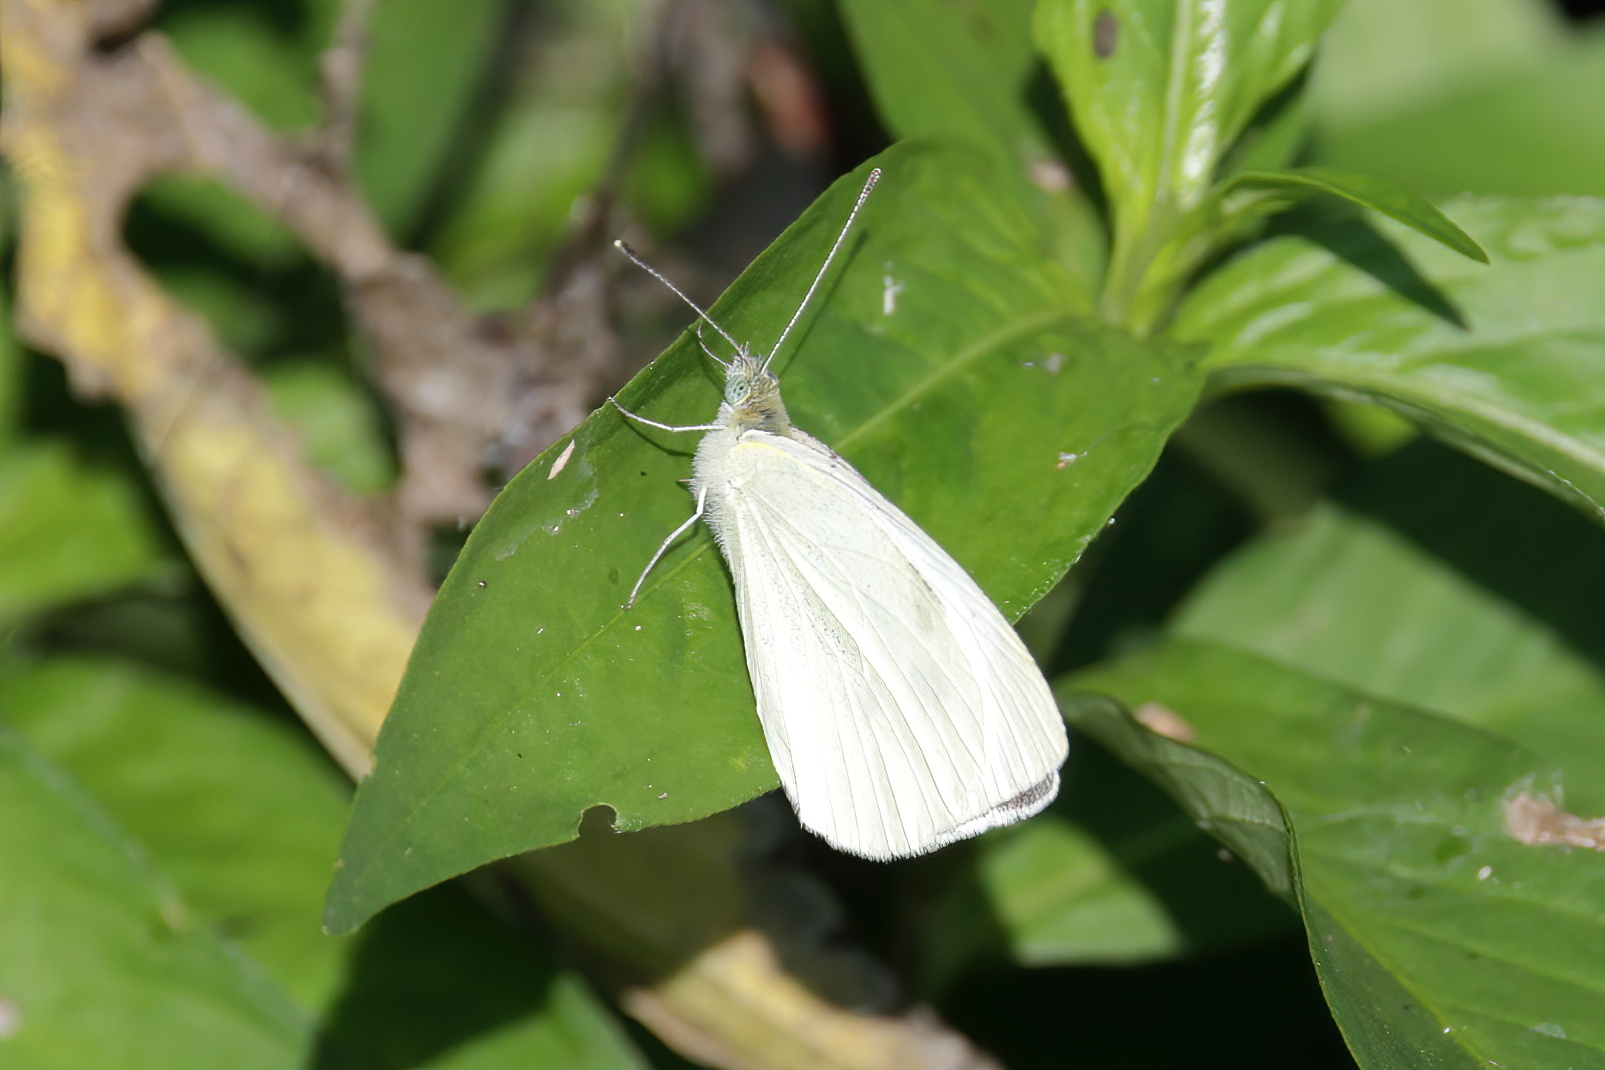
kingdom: Animalia
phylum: Arthropoda
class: Insecta
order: Lepidoptera
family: Pieridae
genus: Pieris
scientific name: Pieris rapae
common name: Small white
